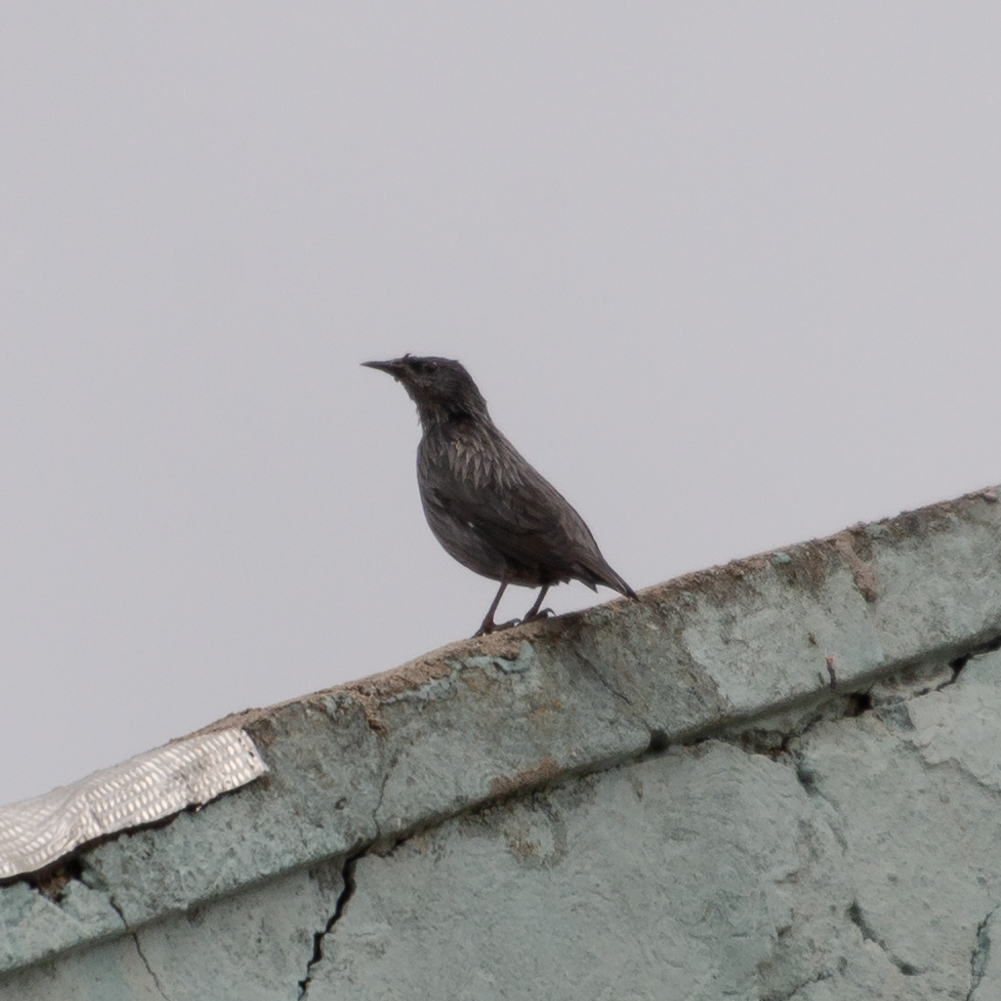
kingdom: Animalia
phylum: Chordata
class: Aves
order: Passeriformes
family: Sturnidae
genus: Sturnus
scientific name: Sturnus unicolor
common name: Spotless starling
